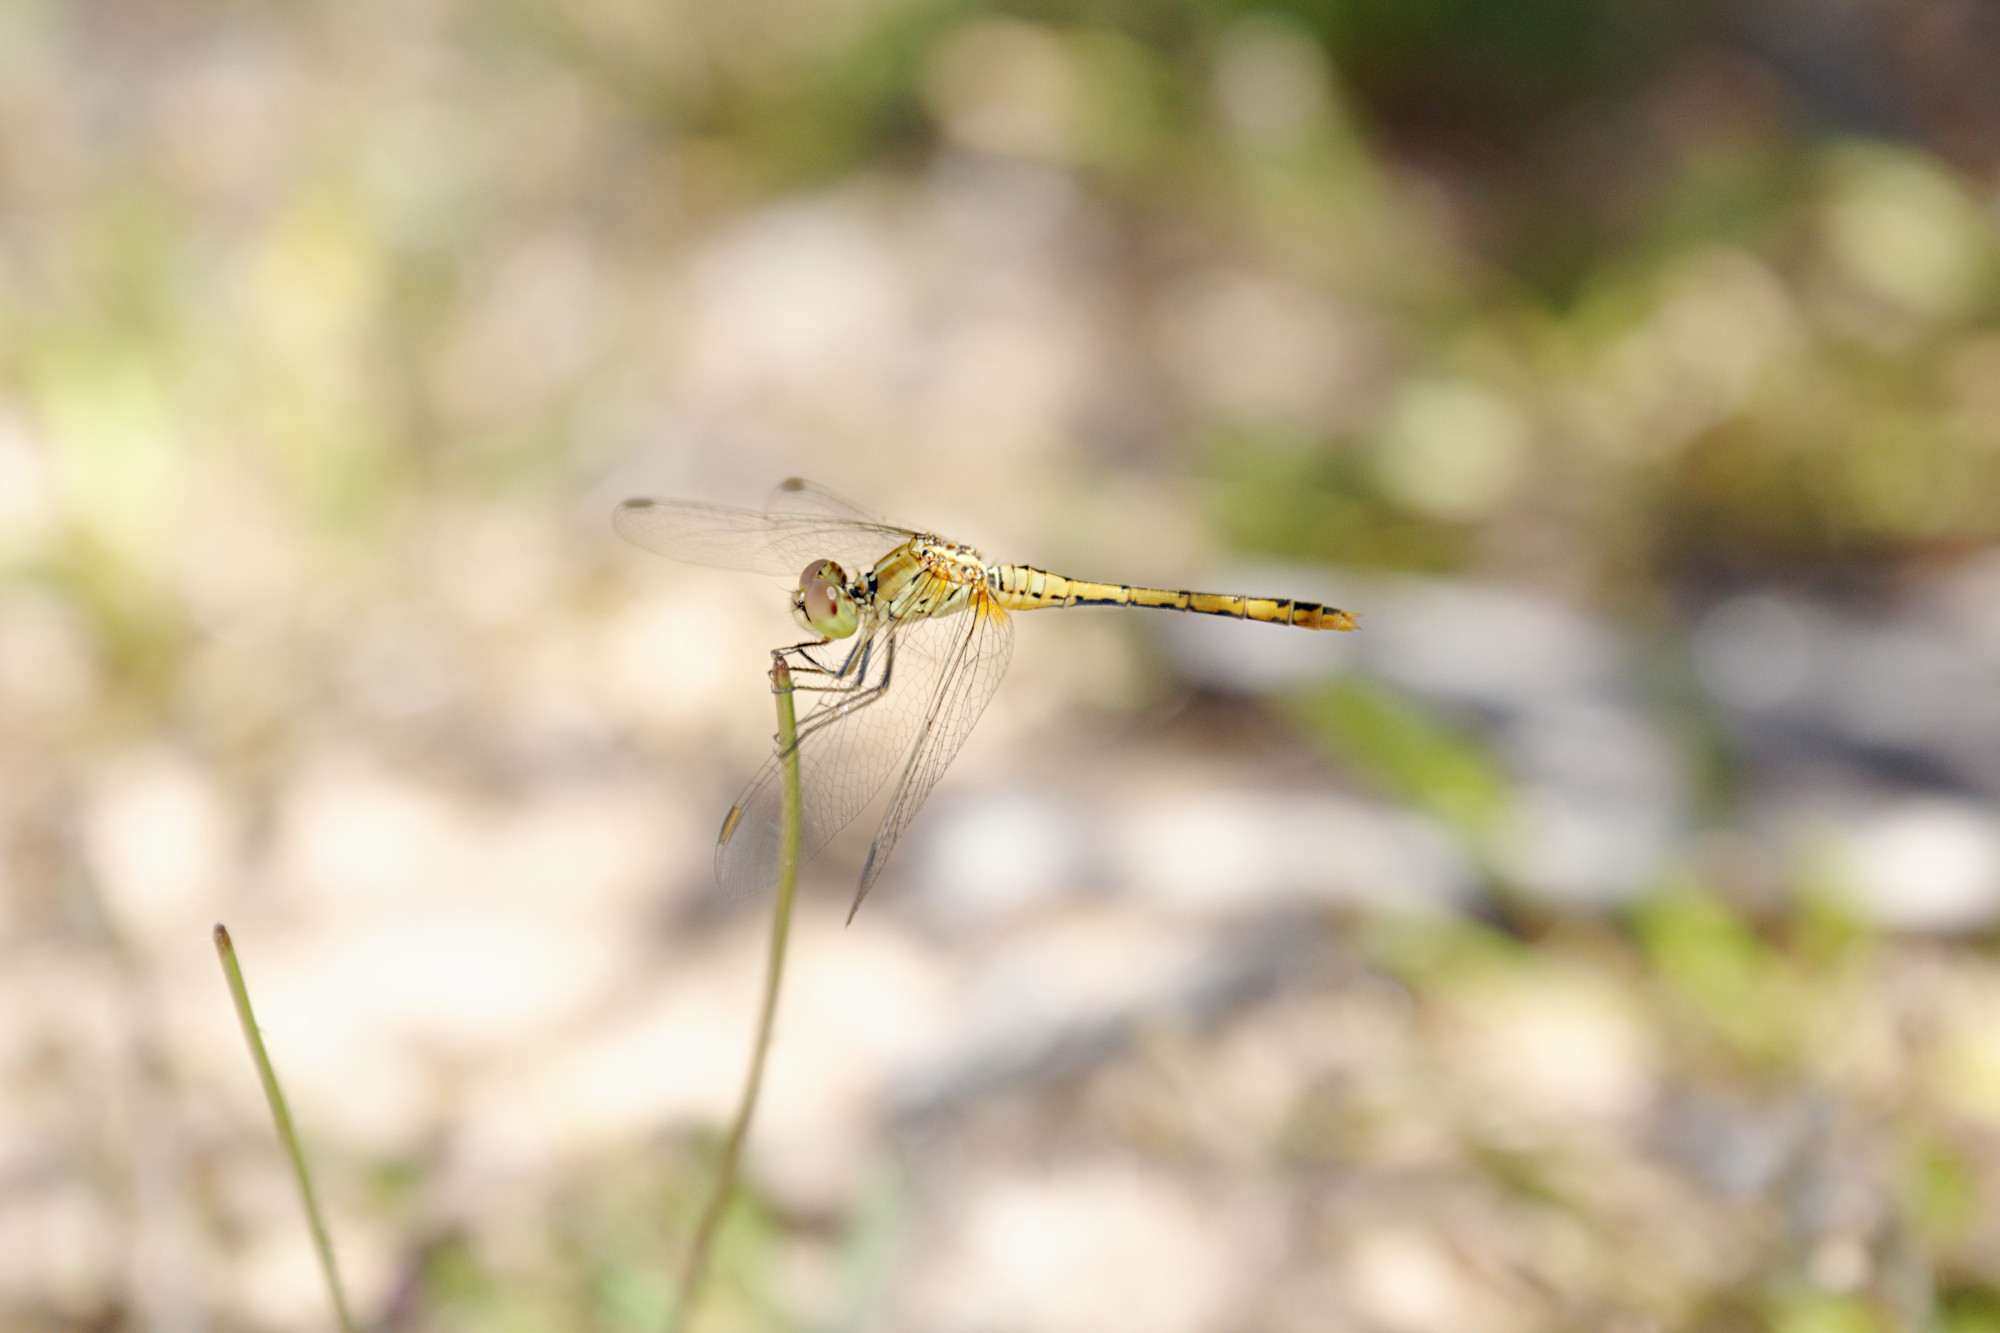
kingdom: Animalia
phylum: Arthropoda
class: Insecta
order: Odonata
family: Libellulidae
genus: Diplacodes
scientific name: Diplacodes bipunctata
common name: Red percher dragonfly
